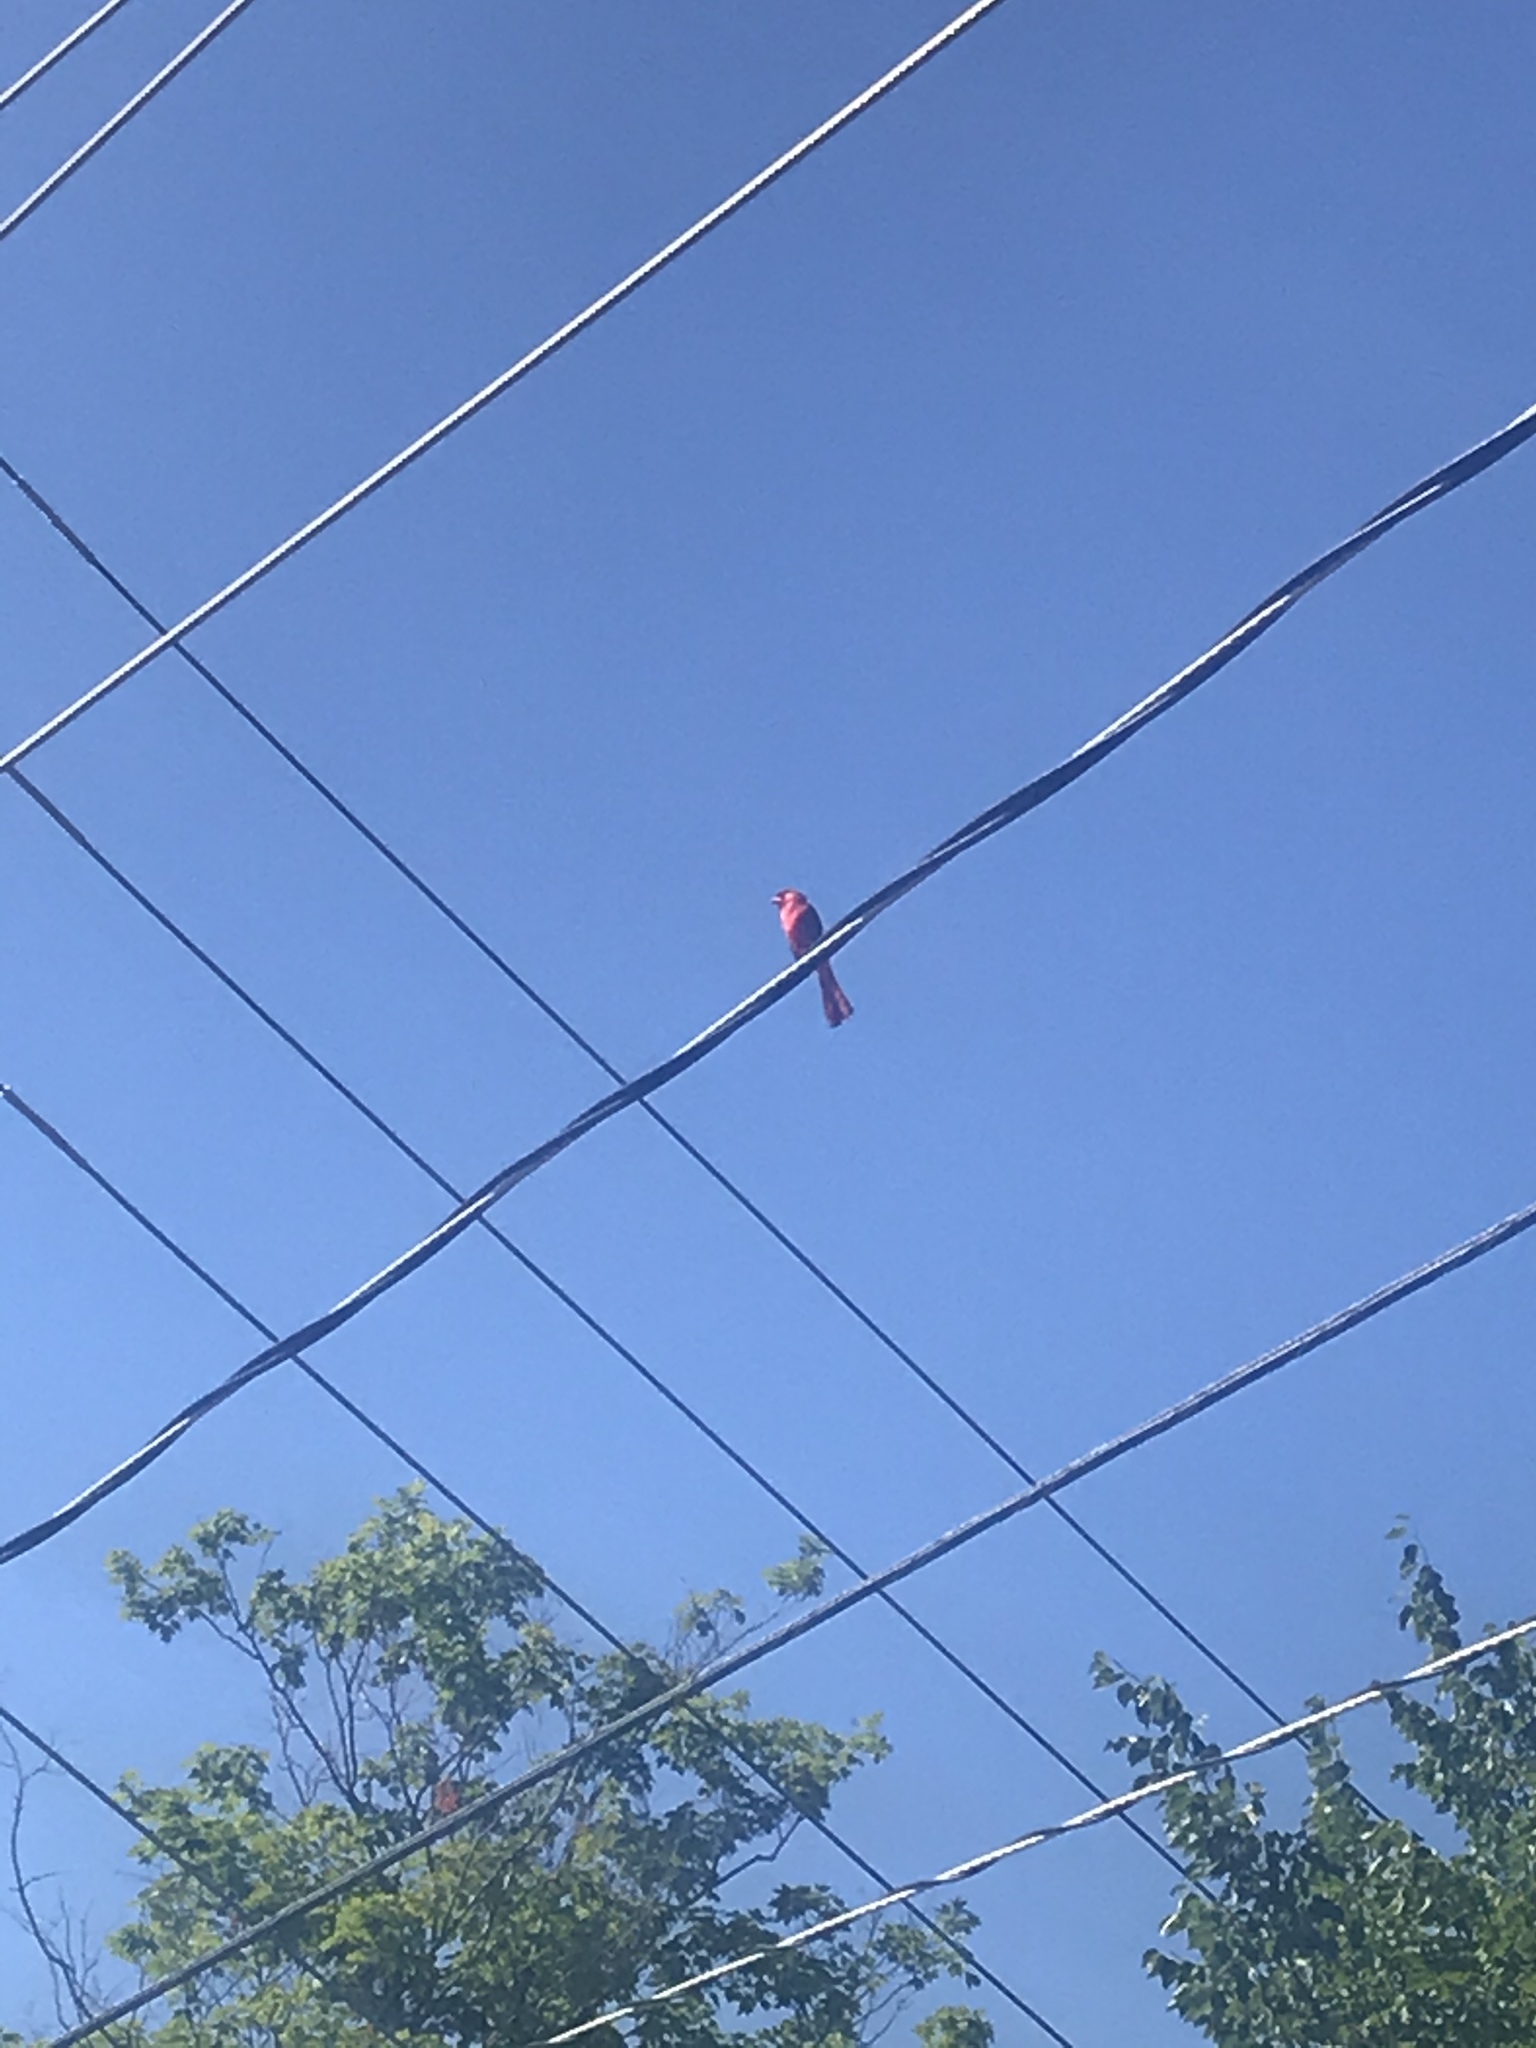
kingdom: Animalia
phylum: Chordata
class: Aves
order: Passeriformes
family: Cardinalidae
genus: Cardinalis
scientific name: Cardinalis cardinalis
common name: Northern cardinal
